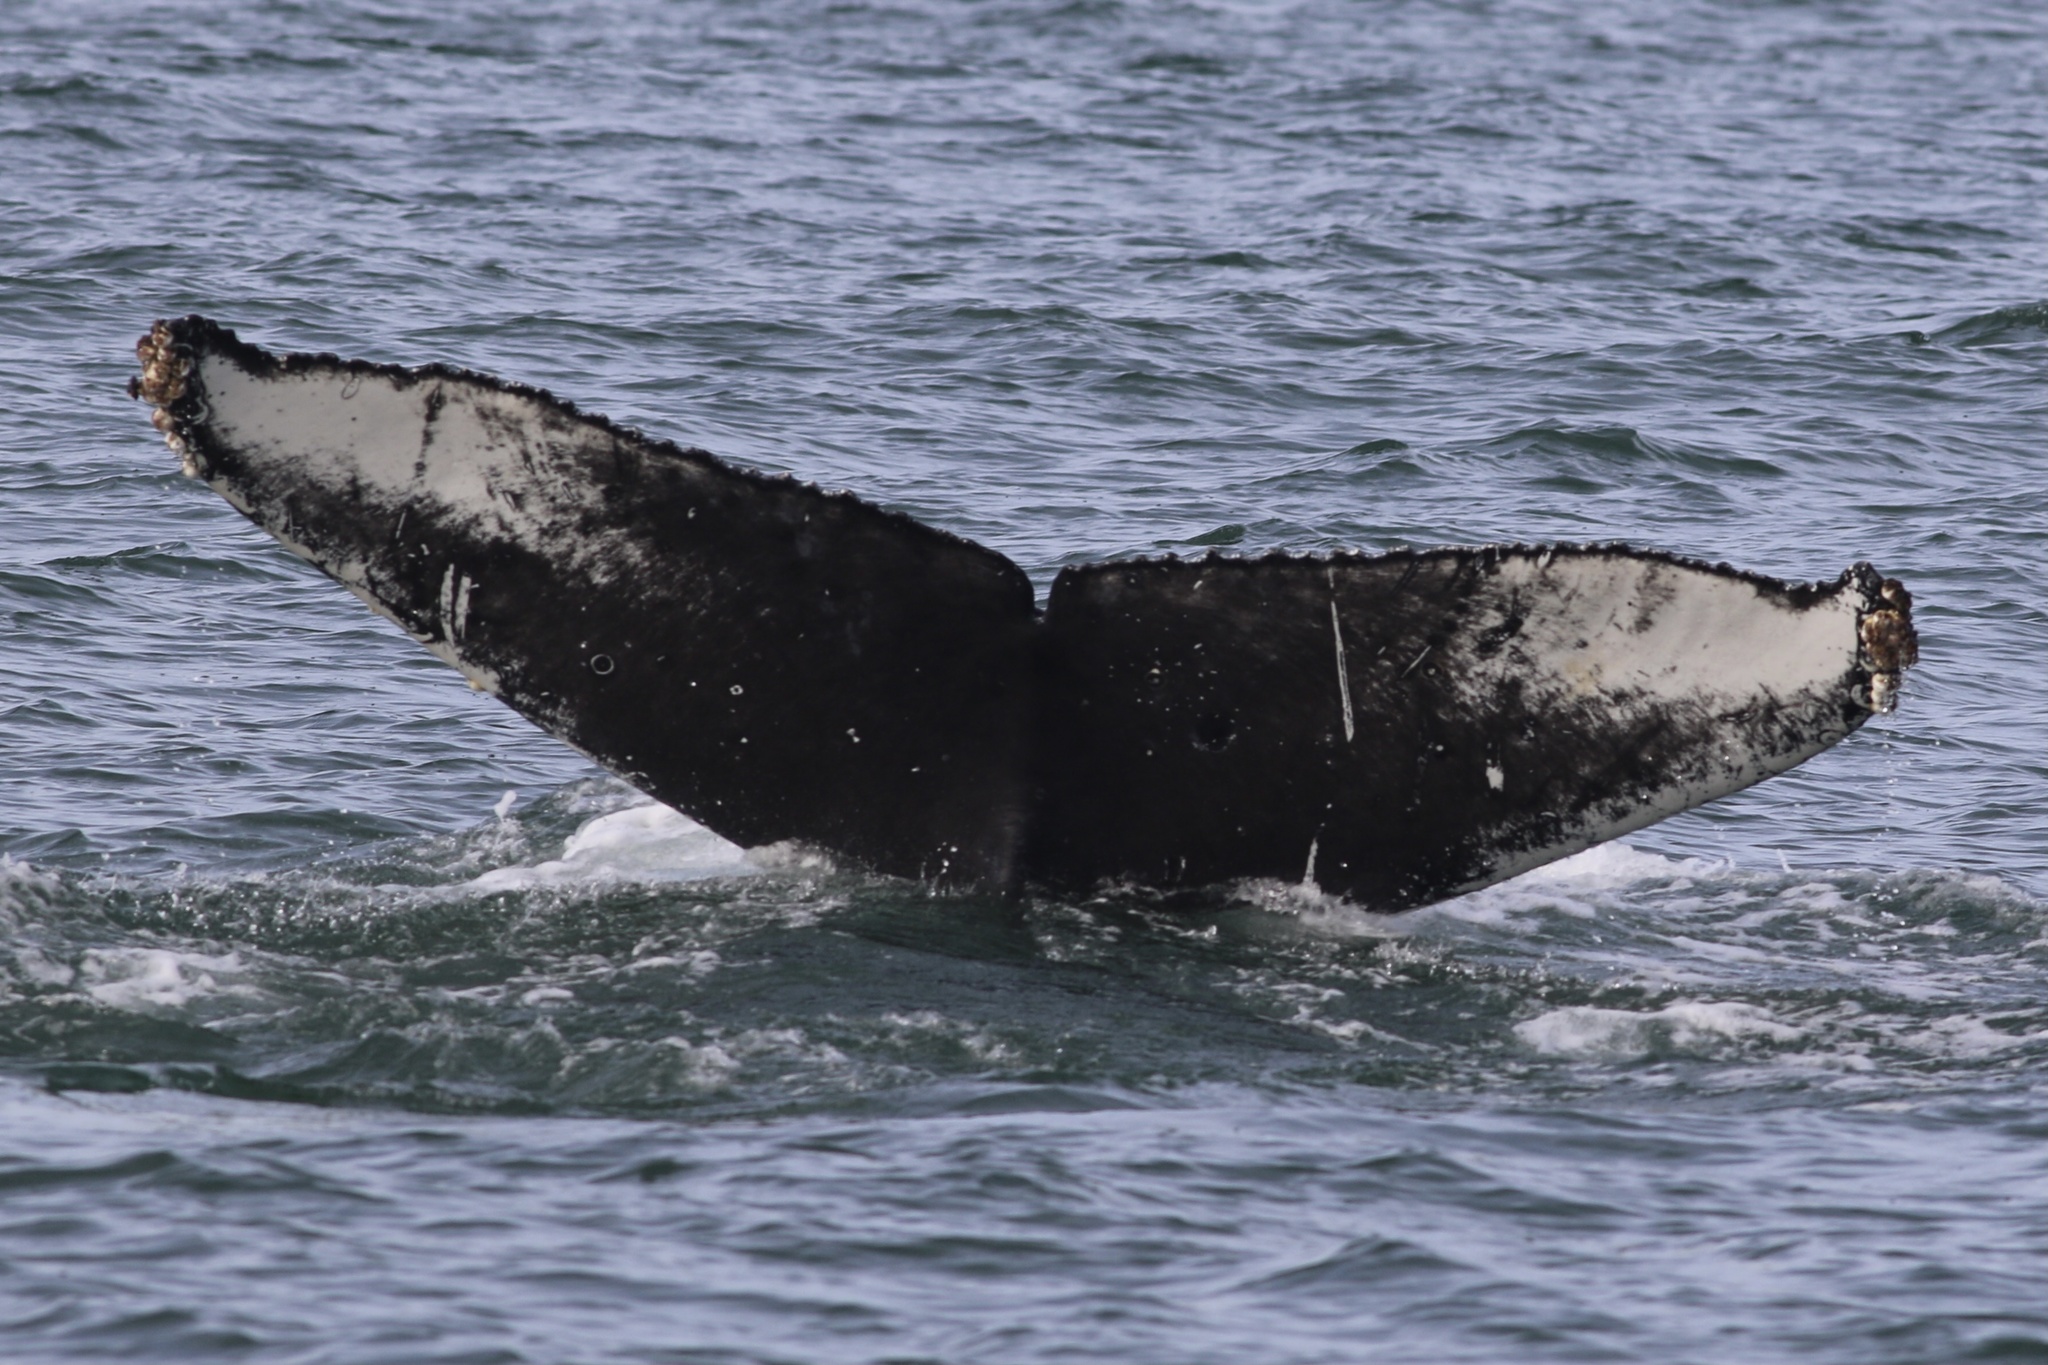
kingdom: Animalia
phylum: Chordata
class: Mammalia
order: Cetacea
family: Balaenopteridae
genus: Megaptera
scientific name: Megaptera novaeangliae
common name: Humpback whale
